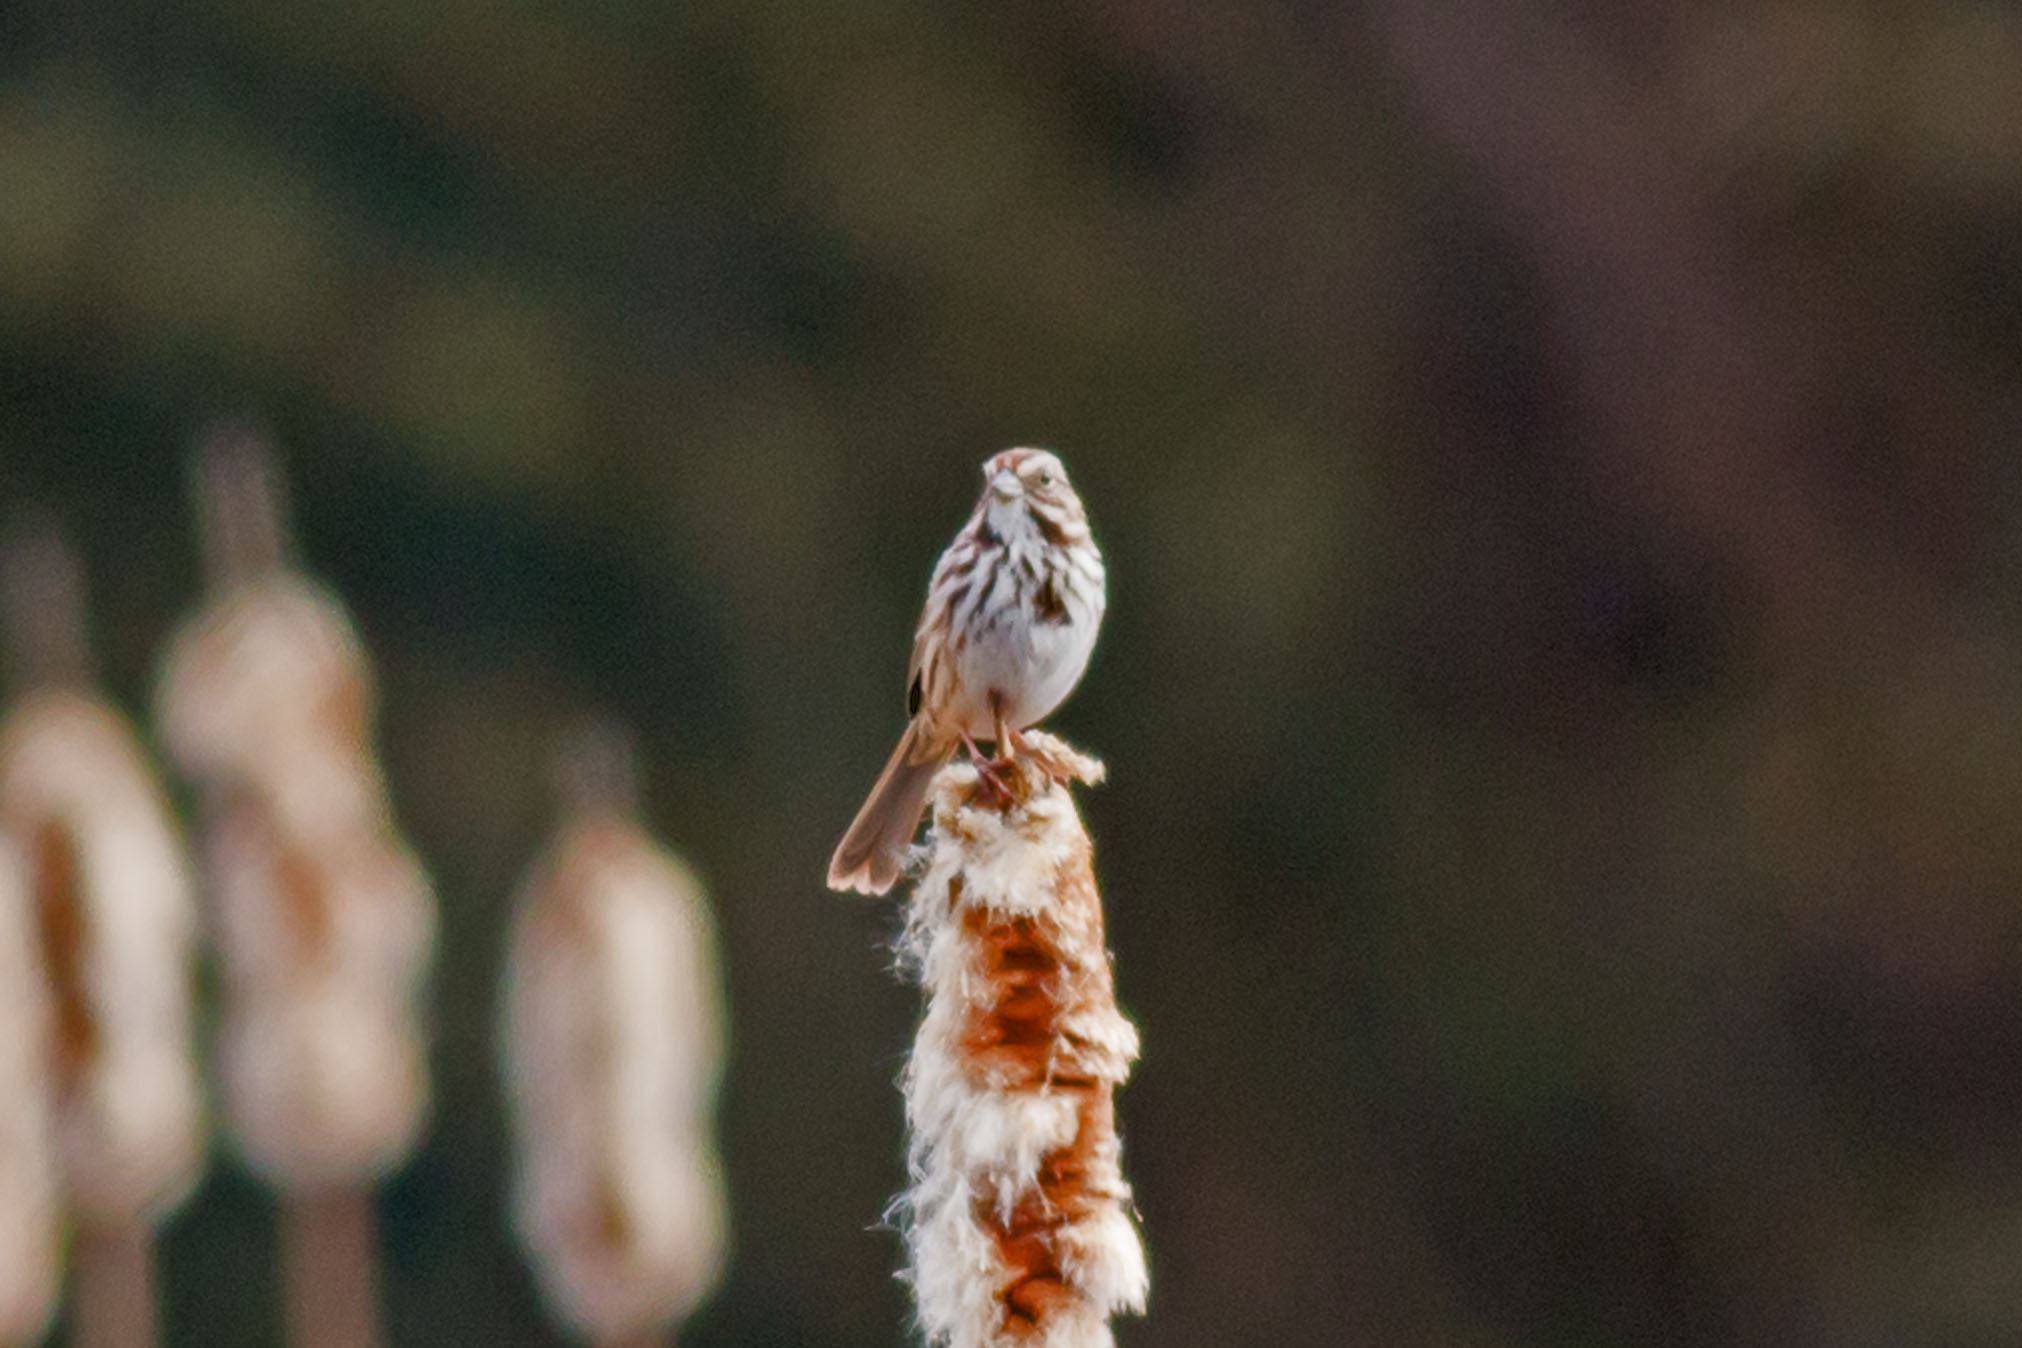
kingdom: Animalia
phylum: Chordata
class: Aves
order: Passeriformes
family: Passerellidae
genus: Melospiza
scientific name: Melospiza melodia
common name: Song sparrow
